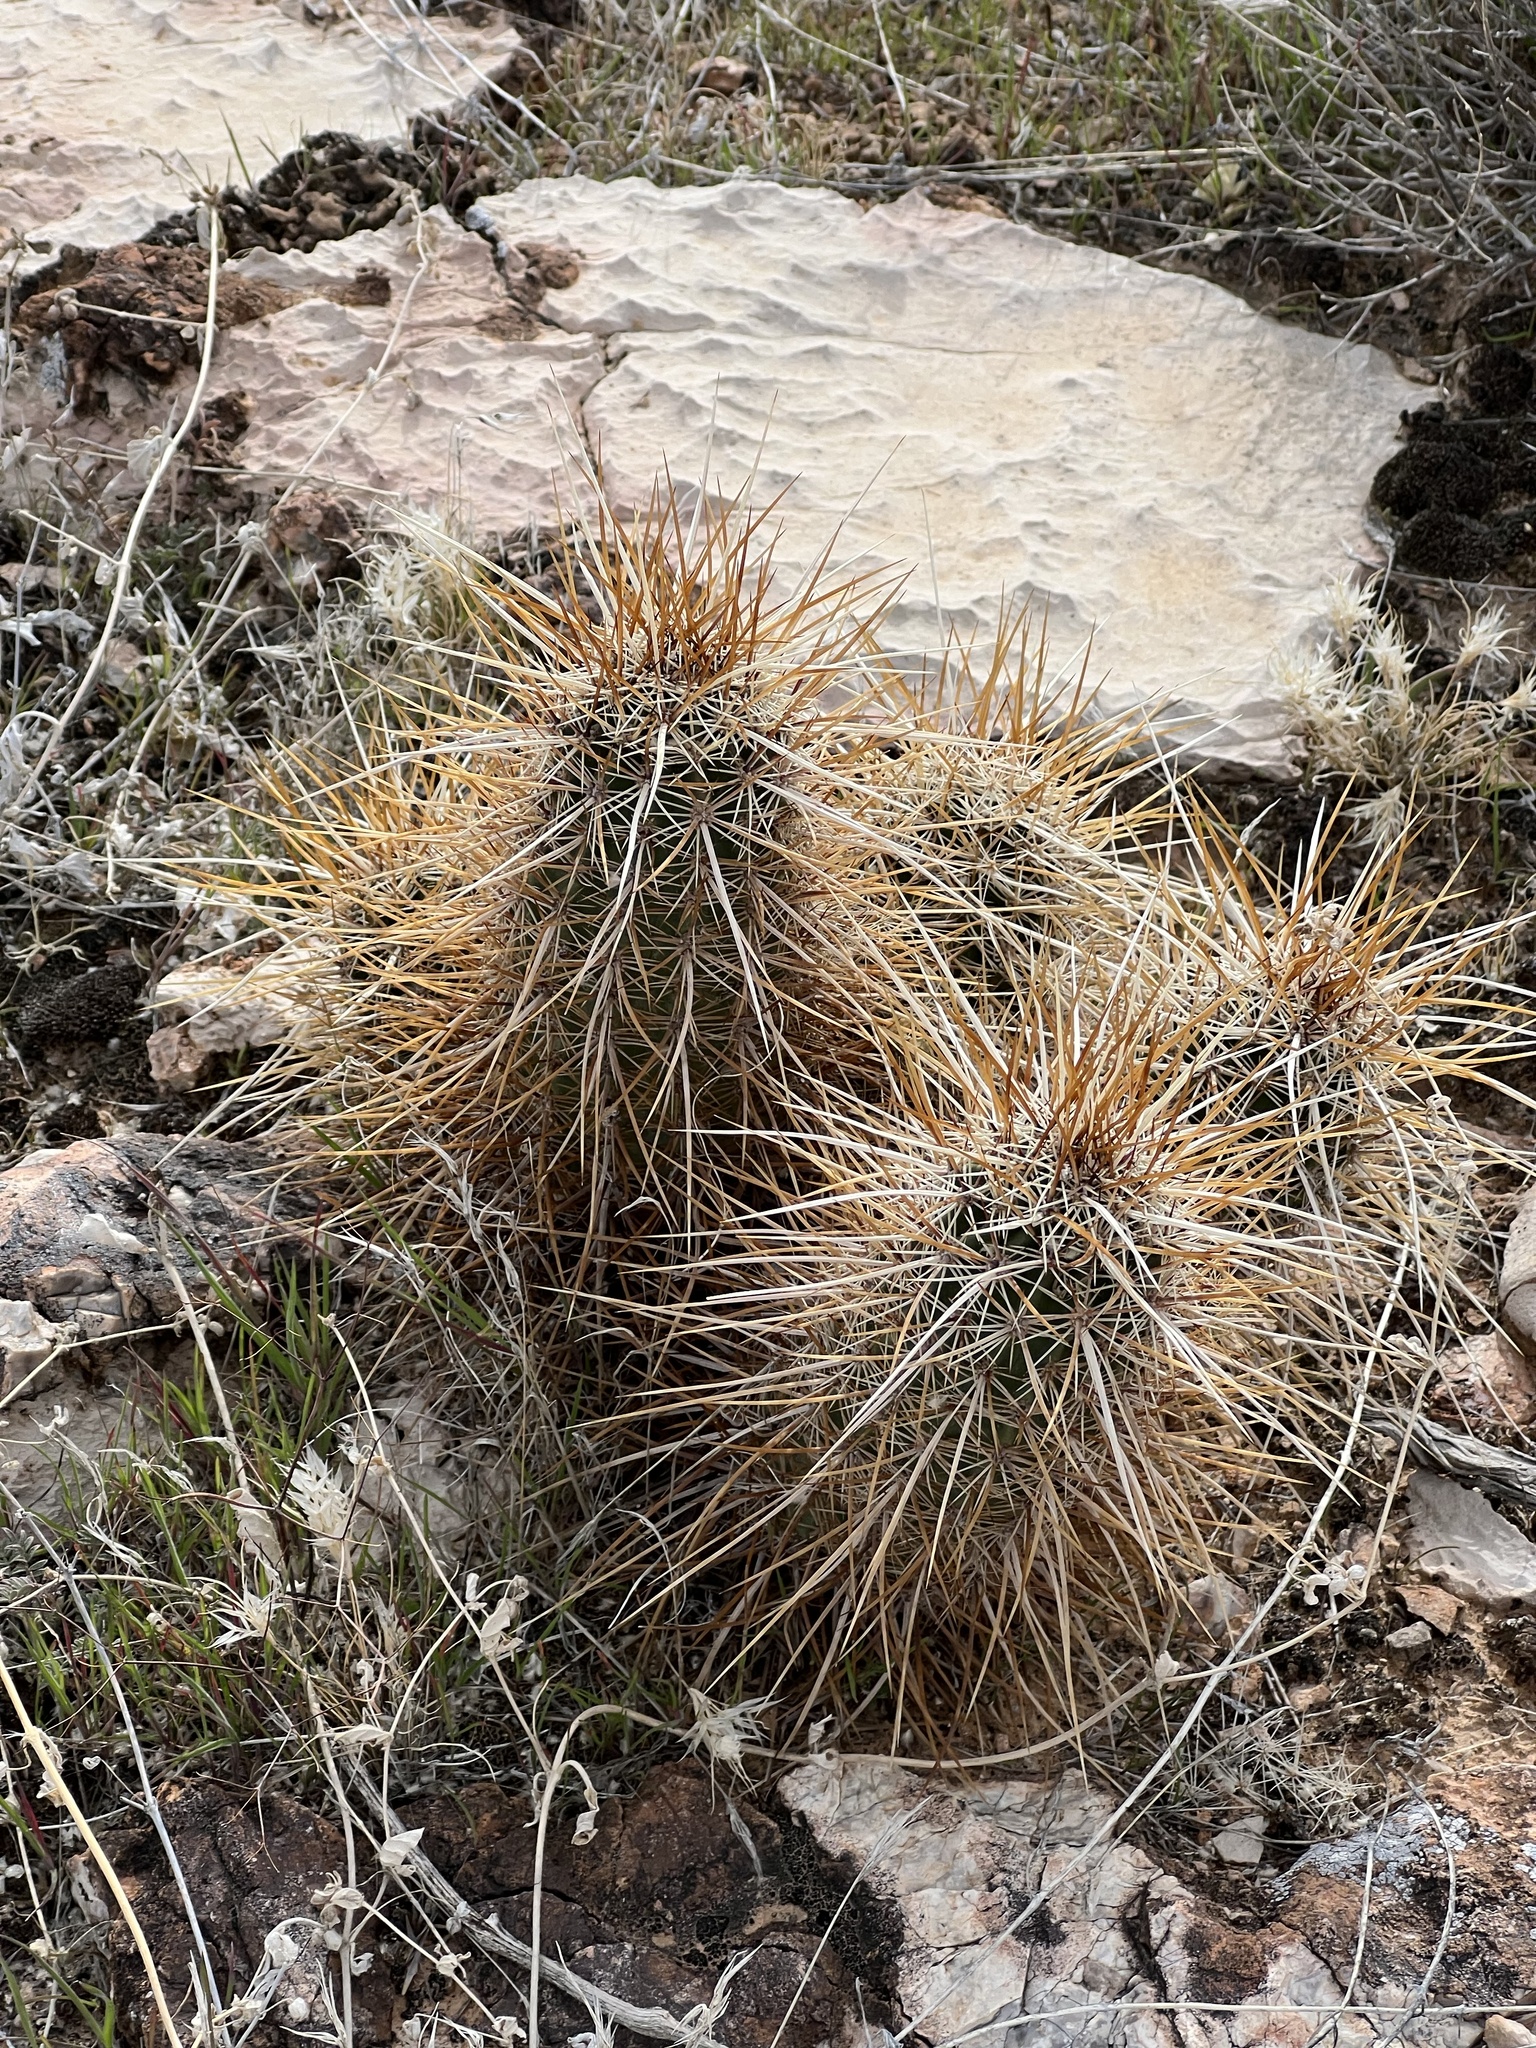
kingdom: Plantae
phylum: Tracheophyta
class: Magnoliopsida
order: Caryophyllales
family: Cactaceae
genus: Echinocereus
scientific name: Echinocereus engelmannii
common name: Engelmann's hedgehog cactus
